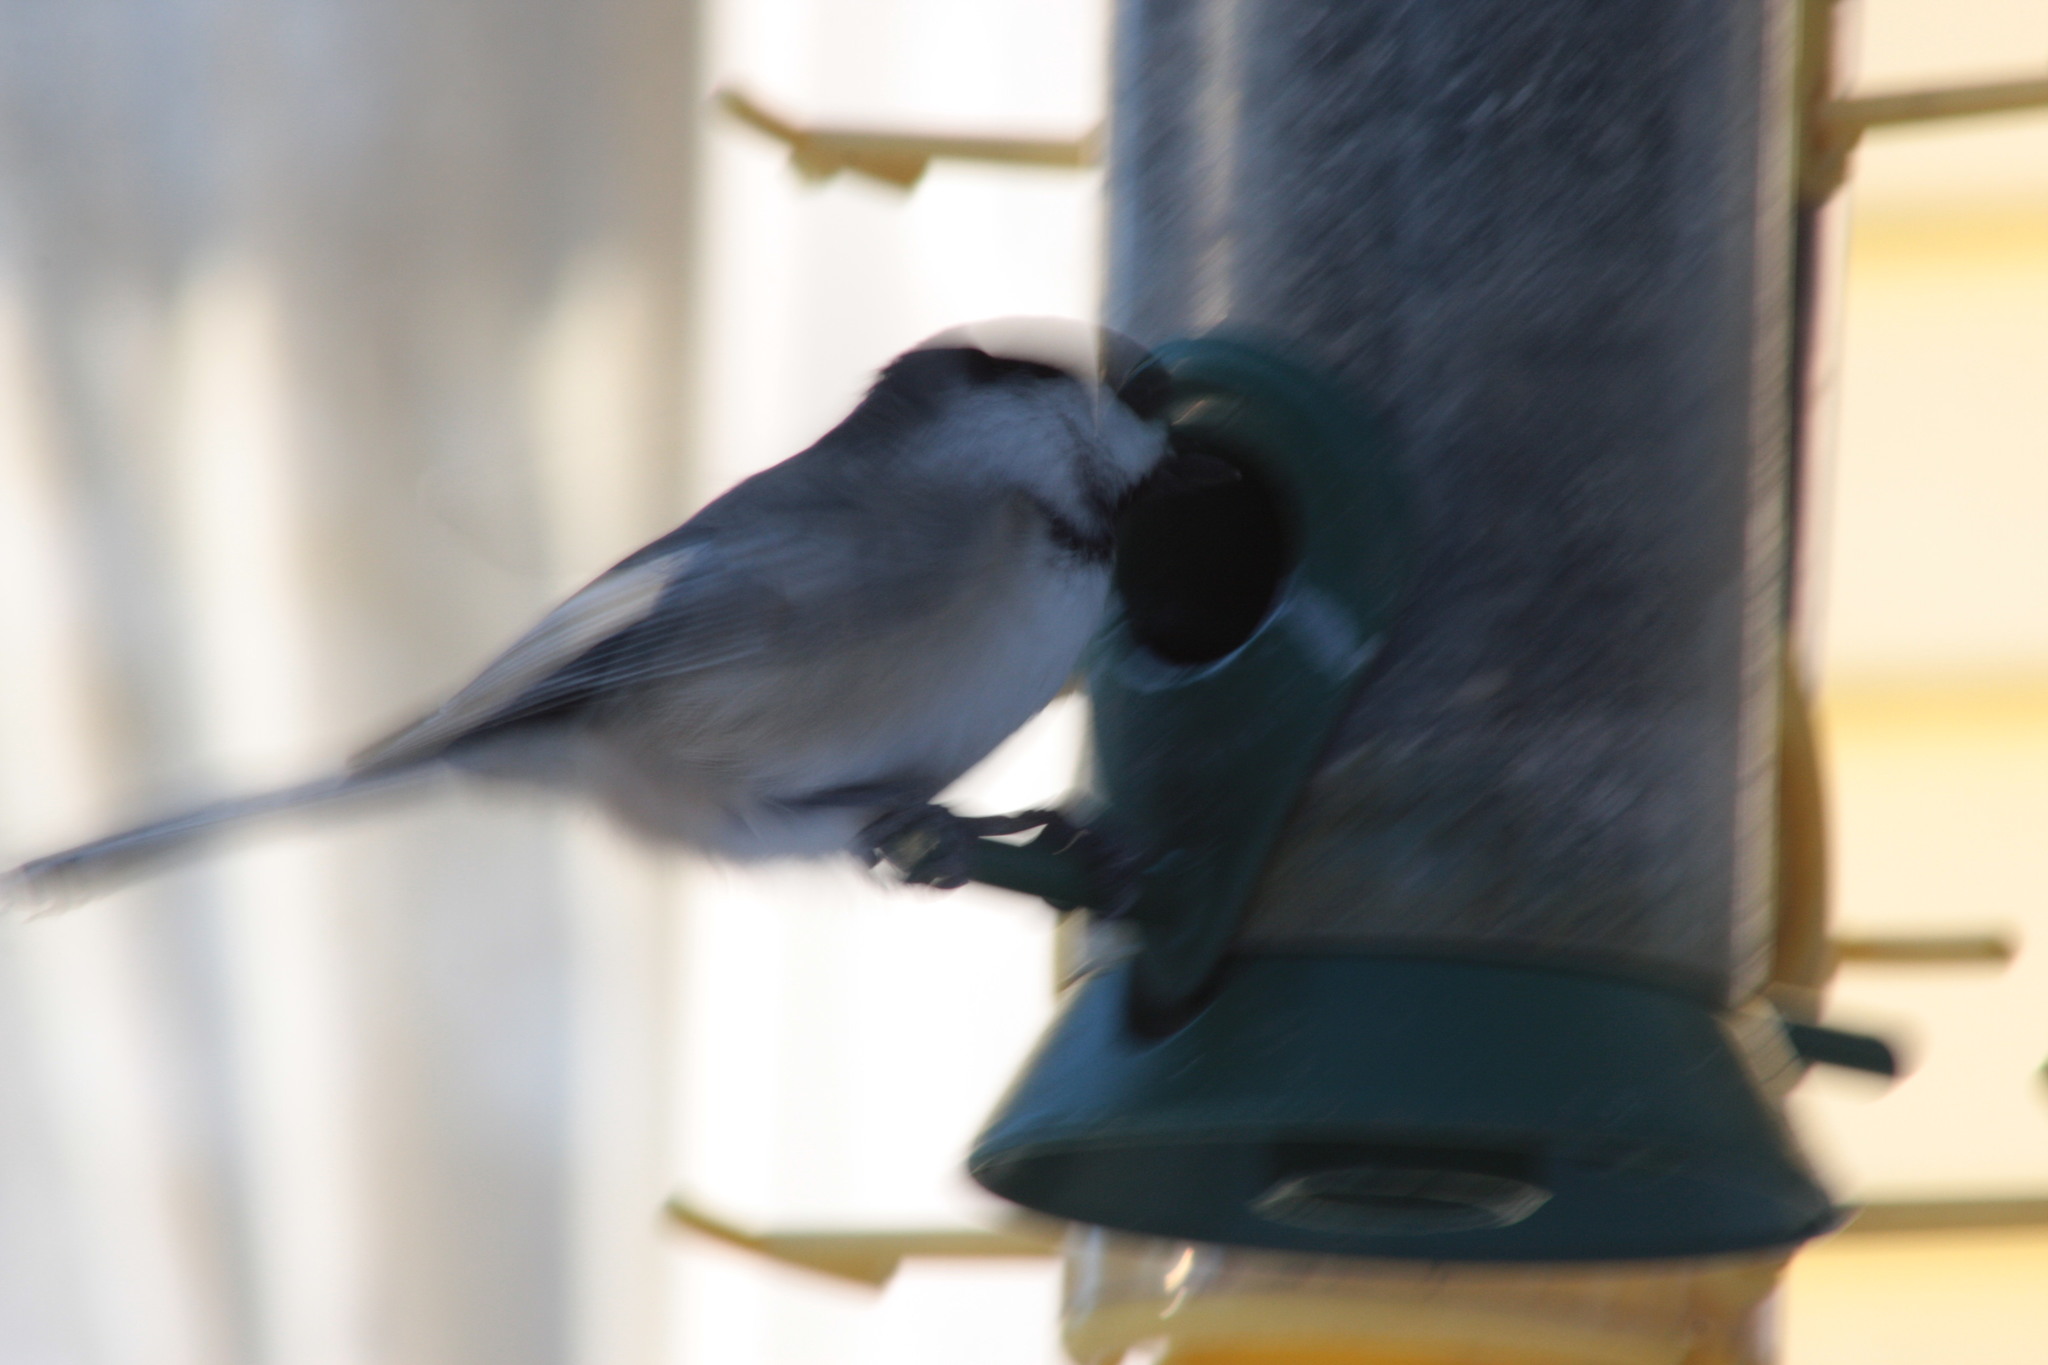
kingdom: Animalia
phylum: Chordata
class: Aves
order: Passeriformes
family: Paridae
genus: Poecile
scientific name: Poecile atricapillus
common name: Black-capped chickadee
